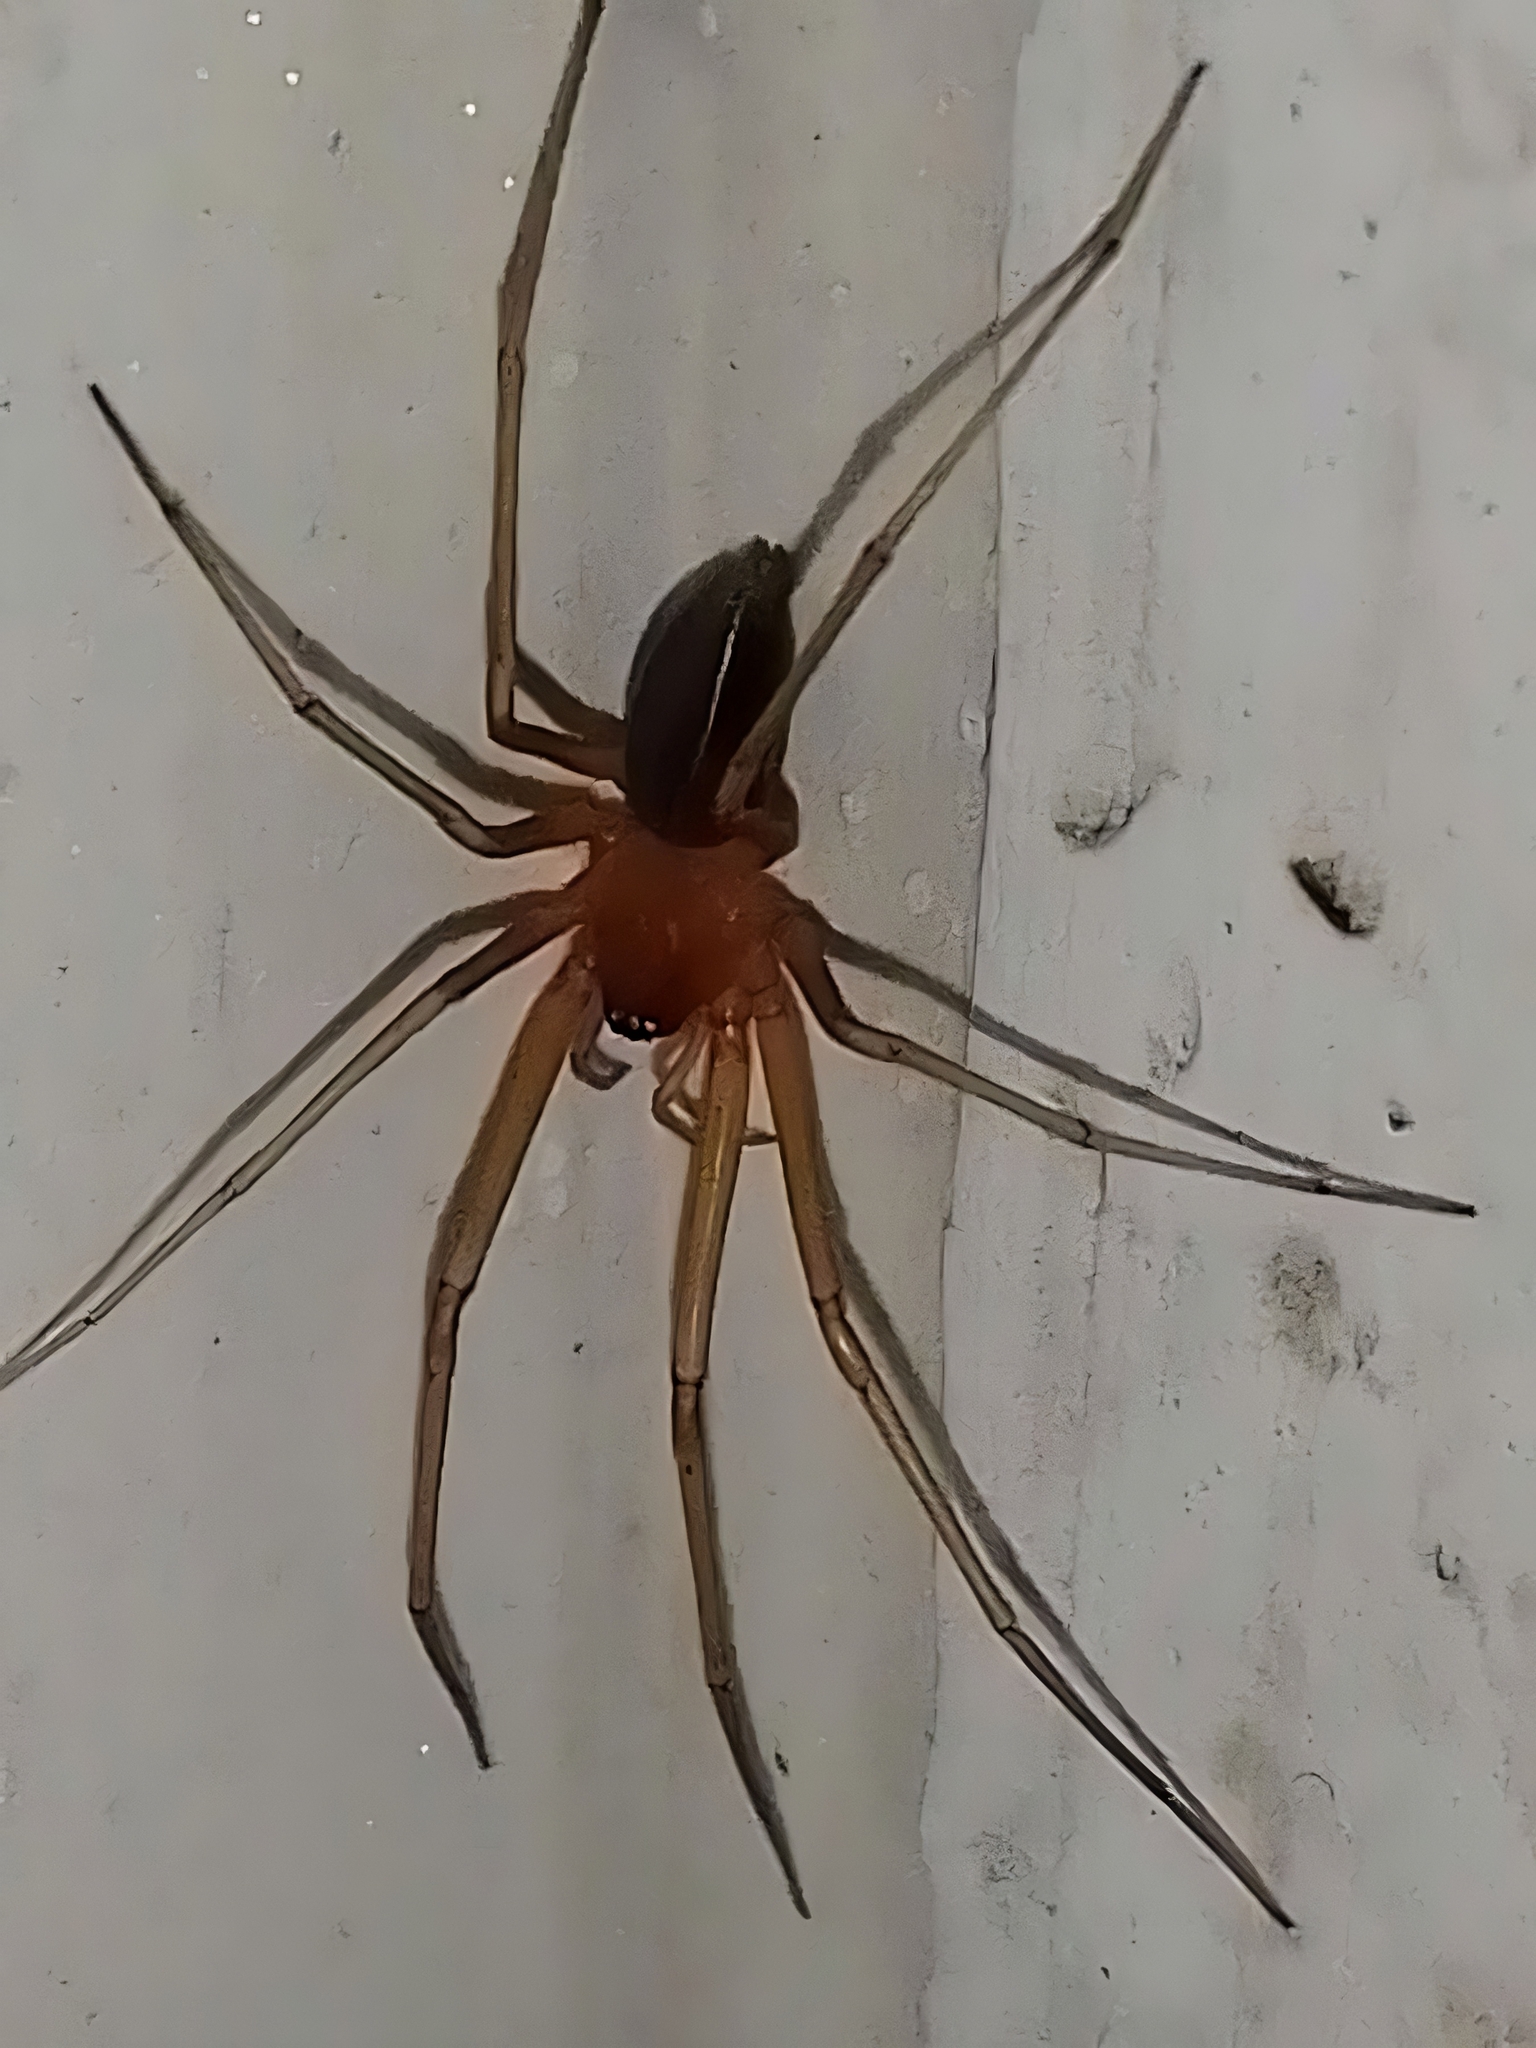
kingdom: Animalia
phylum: Arthropoda
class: Arachnida
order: Araneae
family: Cithaeronidae
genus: Cithaeron
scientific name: Cithaeron praedonius
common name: Synanthropic spider
